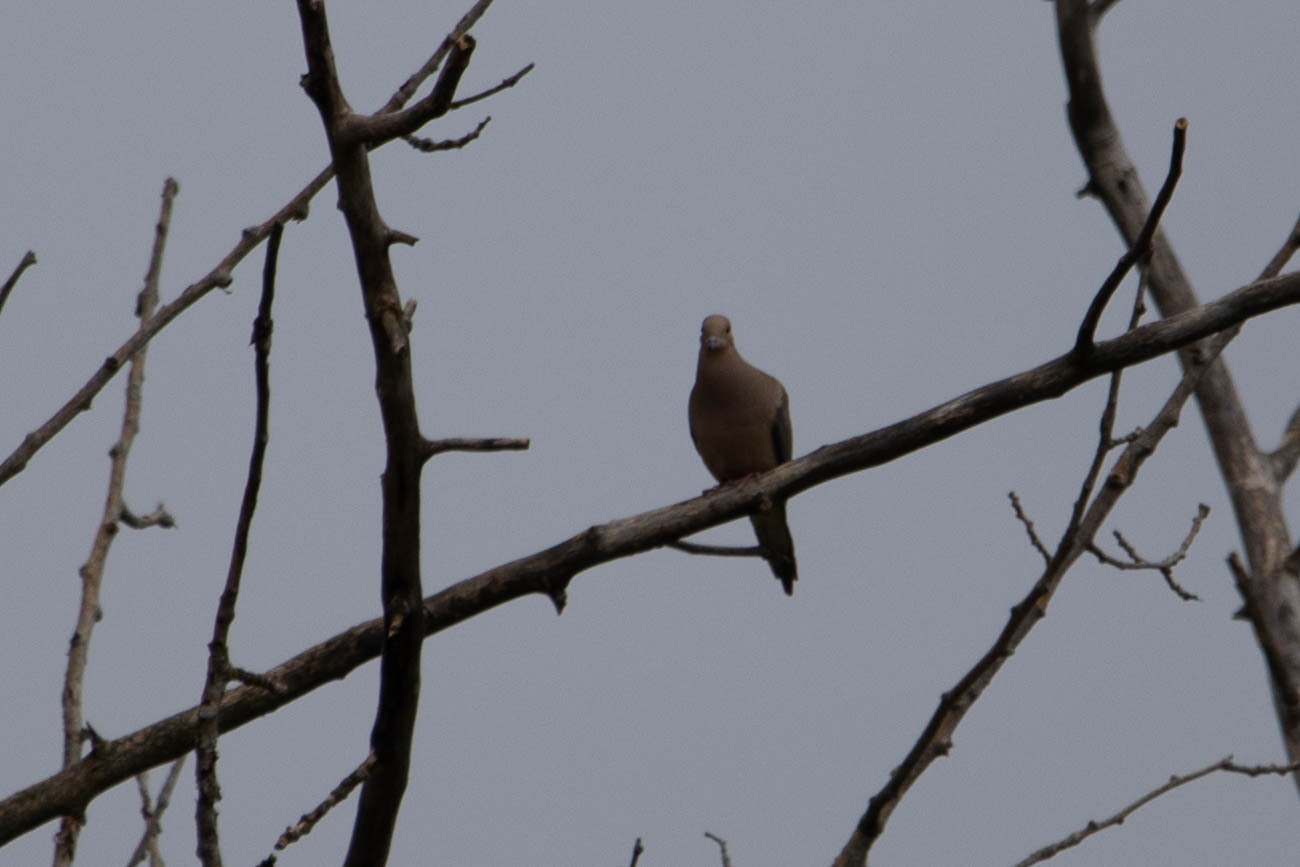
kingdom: Animalia
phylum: Chordata
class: Aves
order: Columbiformes
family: Columbidae
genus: Zenaida
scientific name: Zenaida macroura
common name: Mourning dove
